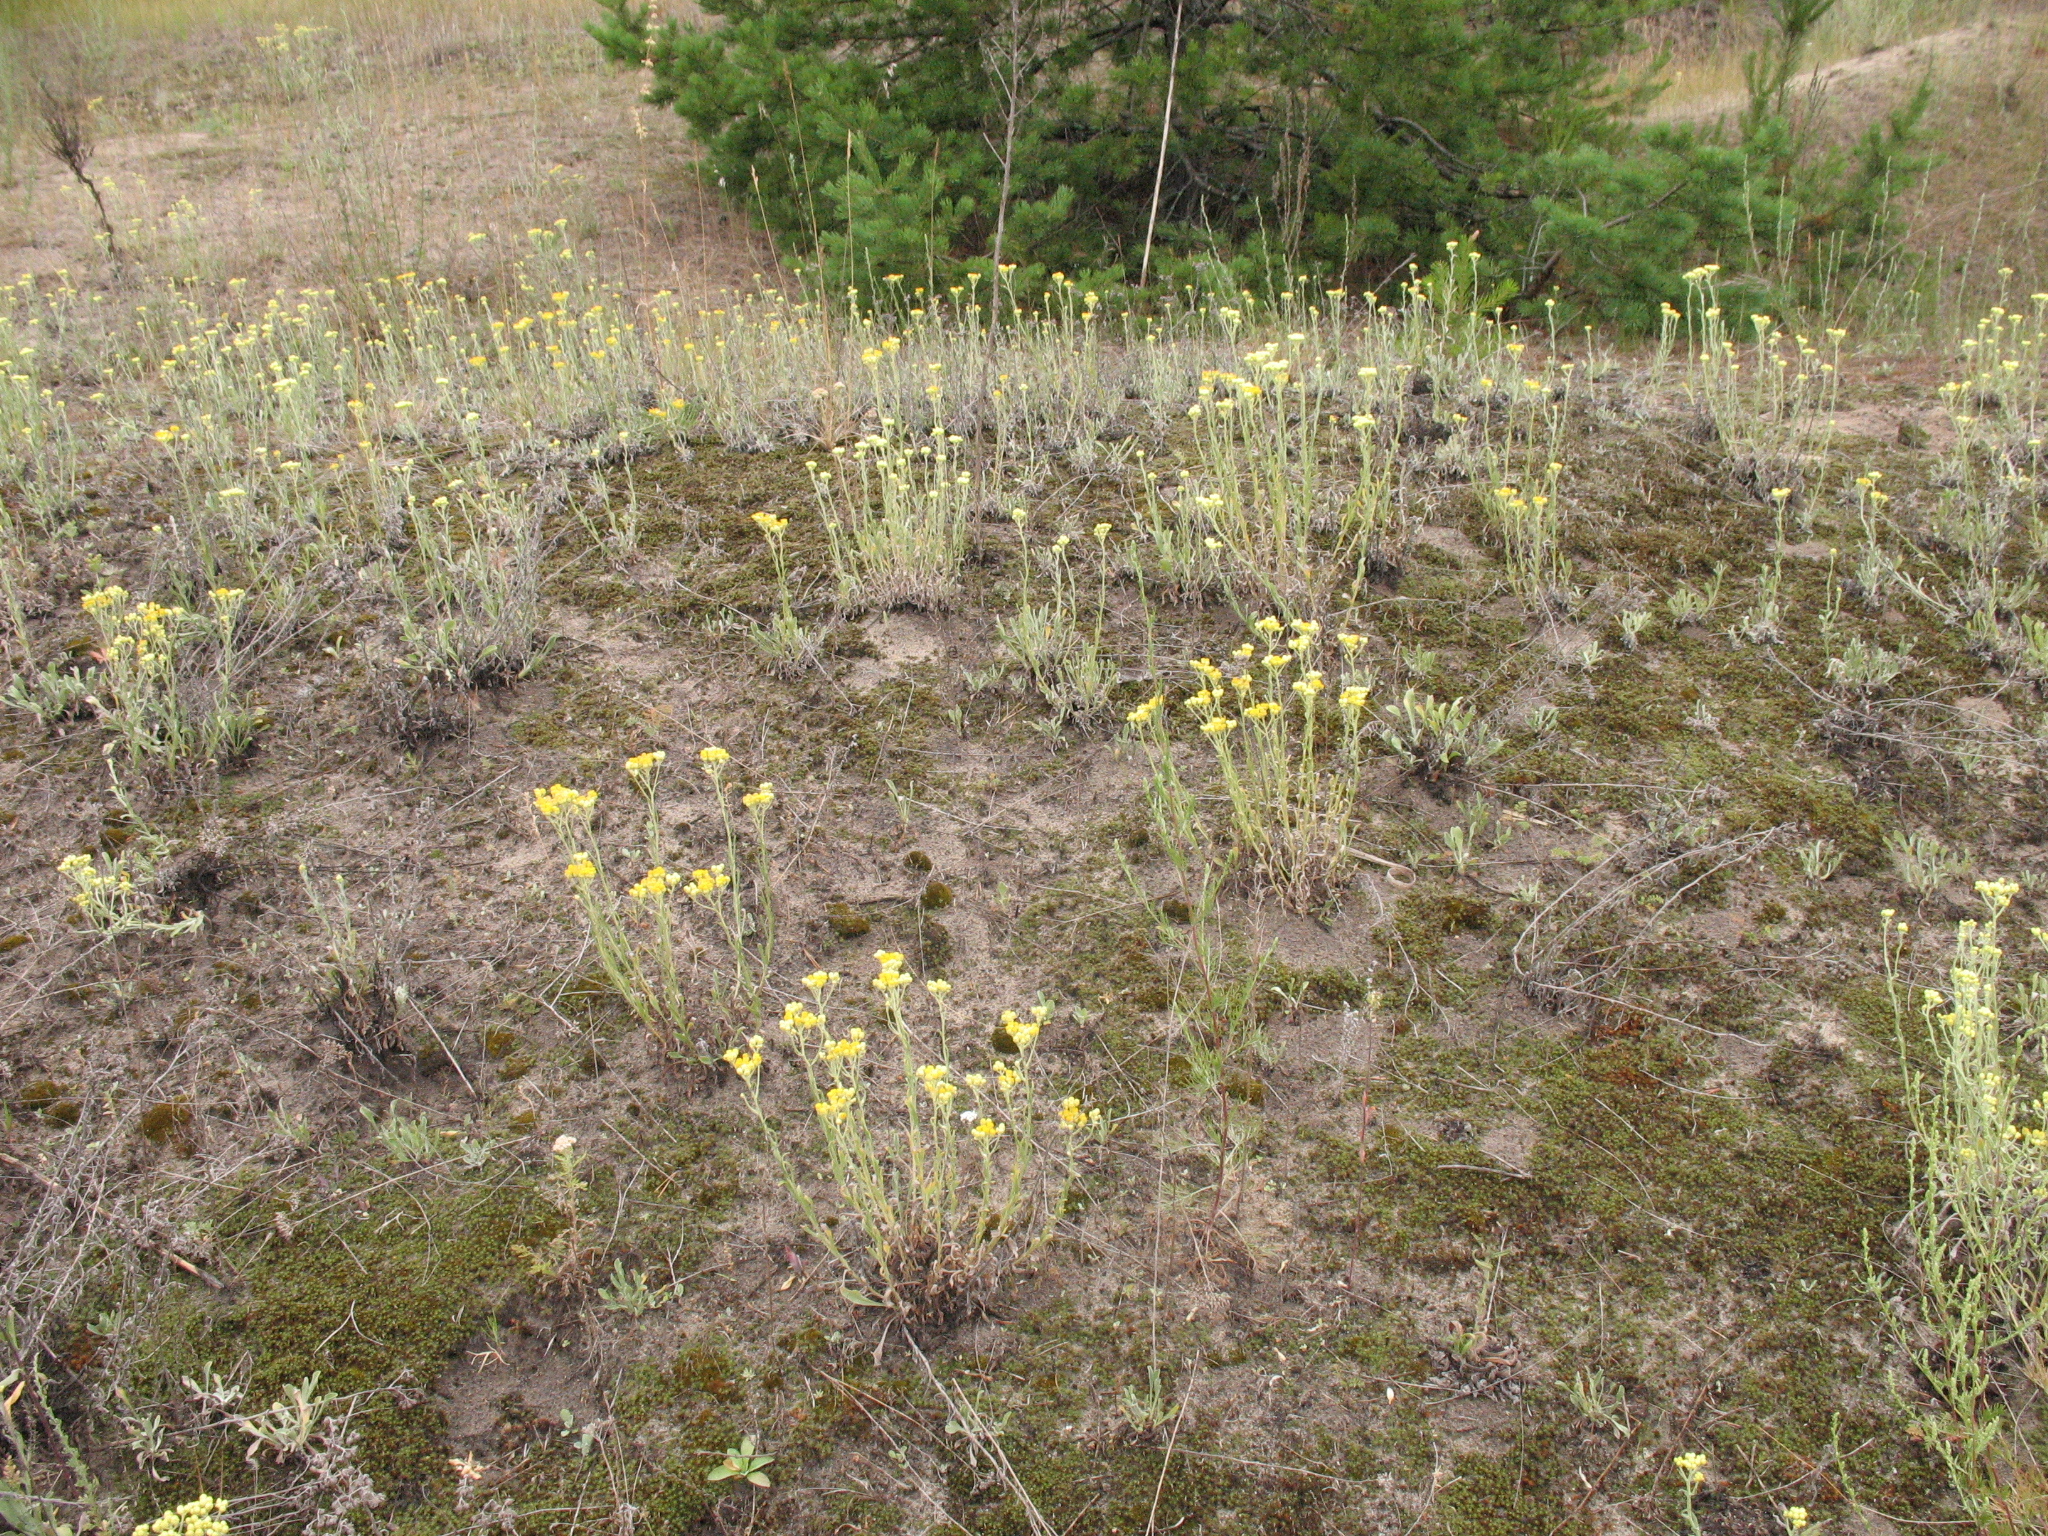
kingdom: Plantae
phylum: Tracheophyta
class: Magnoliopsida
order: Asterales
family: Asteraceae
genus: Helichrysum
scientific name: Helichrysum arenarium
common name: Strawflower
